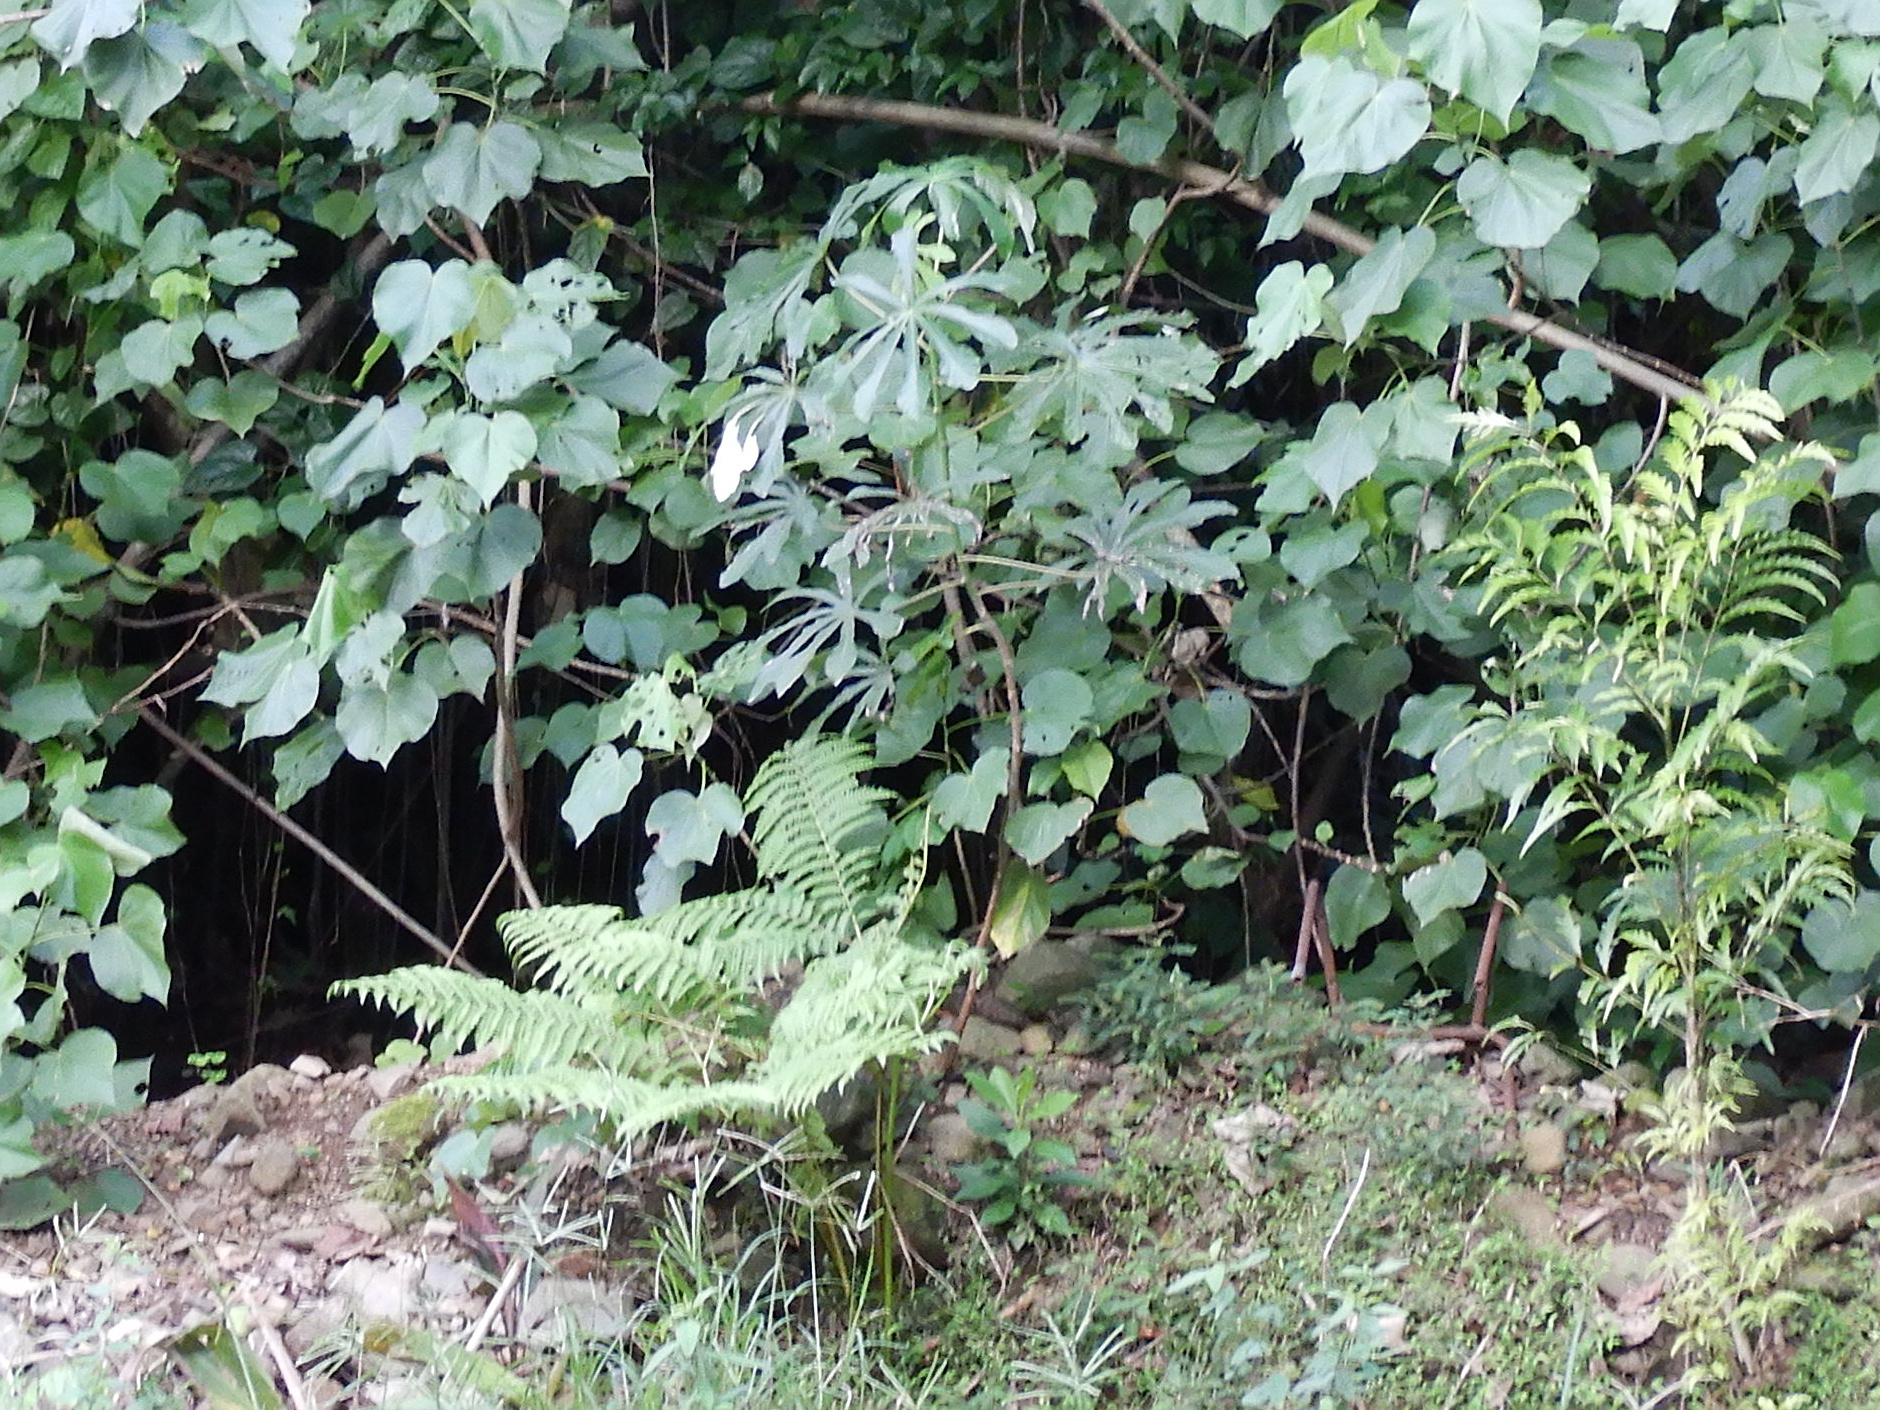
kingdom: Plantae
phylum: Tracheophyta
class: Magnoliopsida
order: Rosales
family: Urticaceae
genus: Cecropia
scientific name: Cecropia pachystachya
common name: Ambay pumpwood
